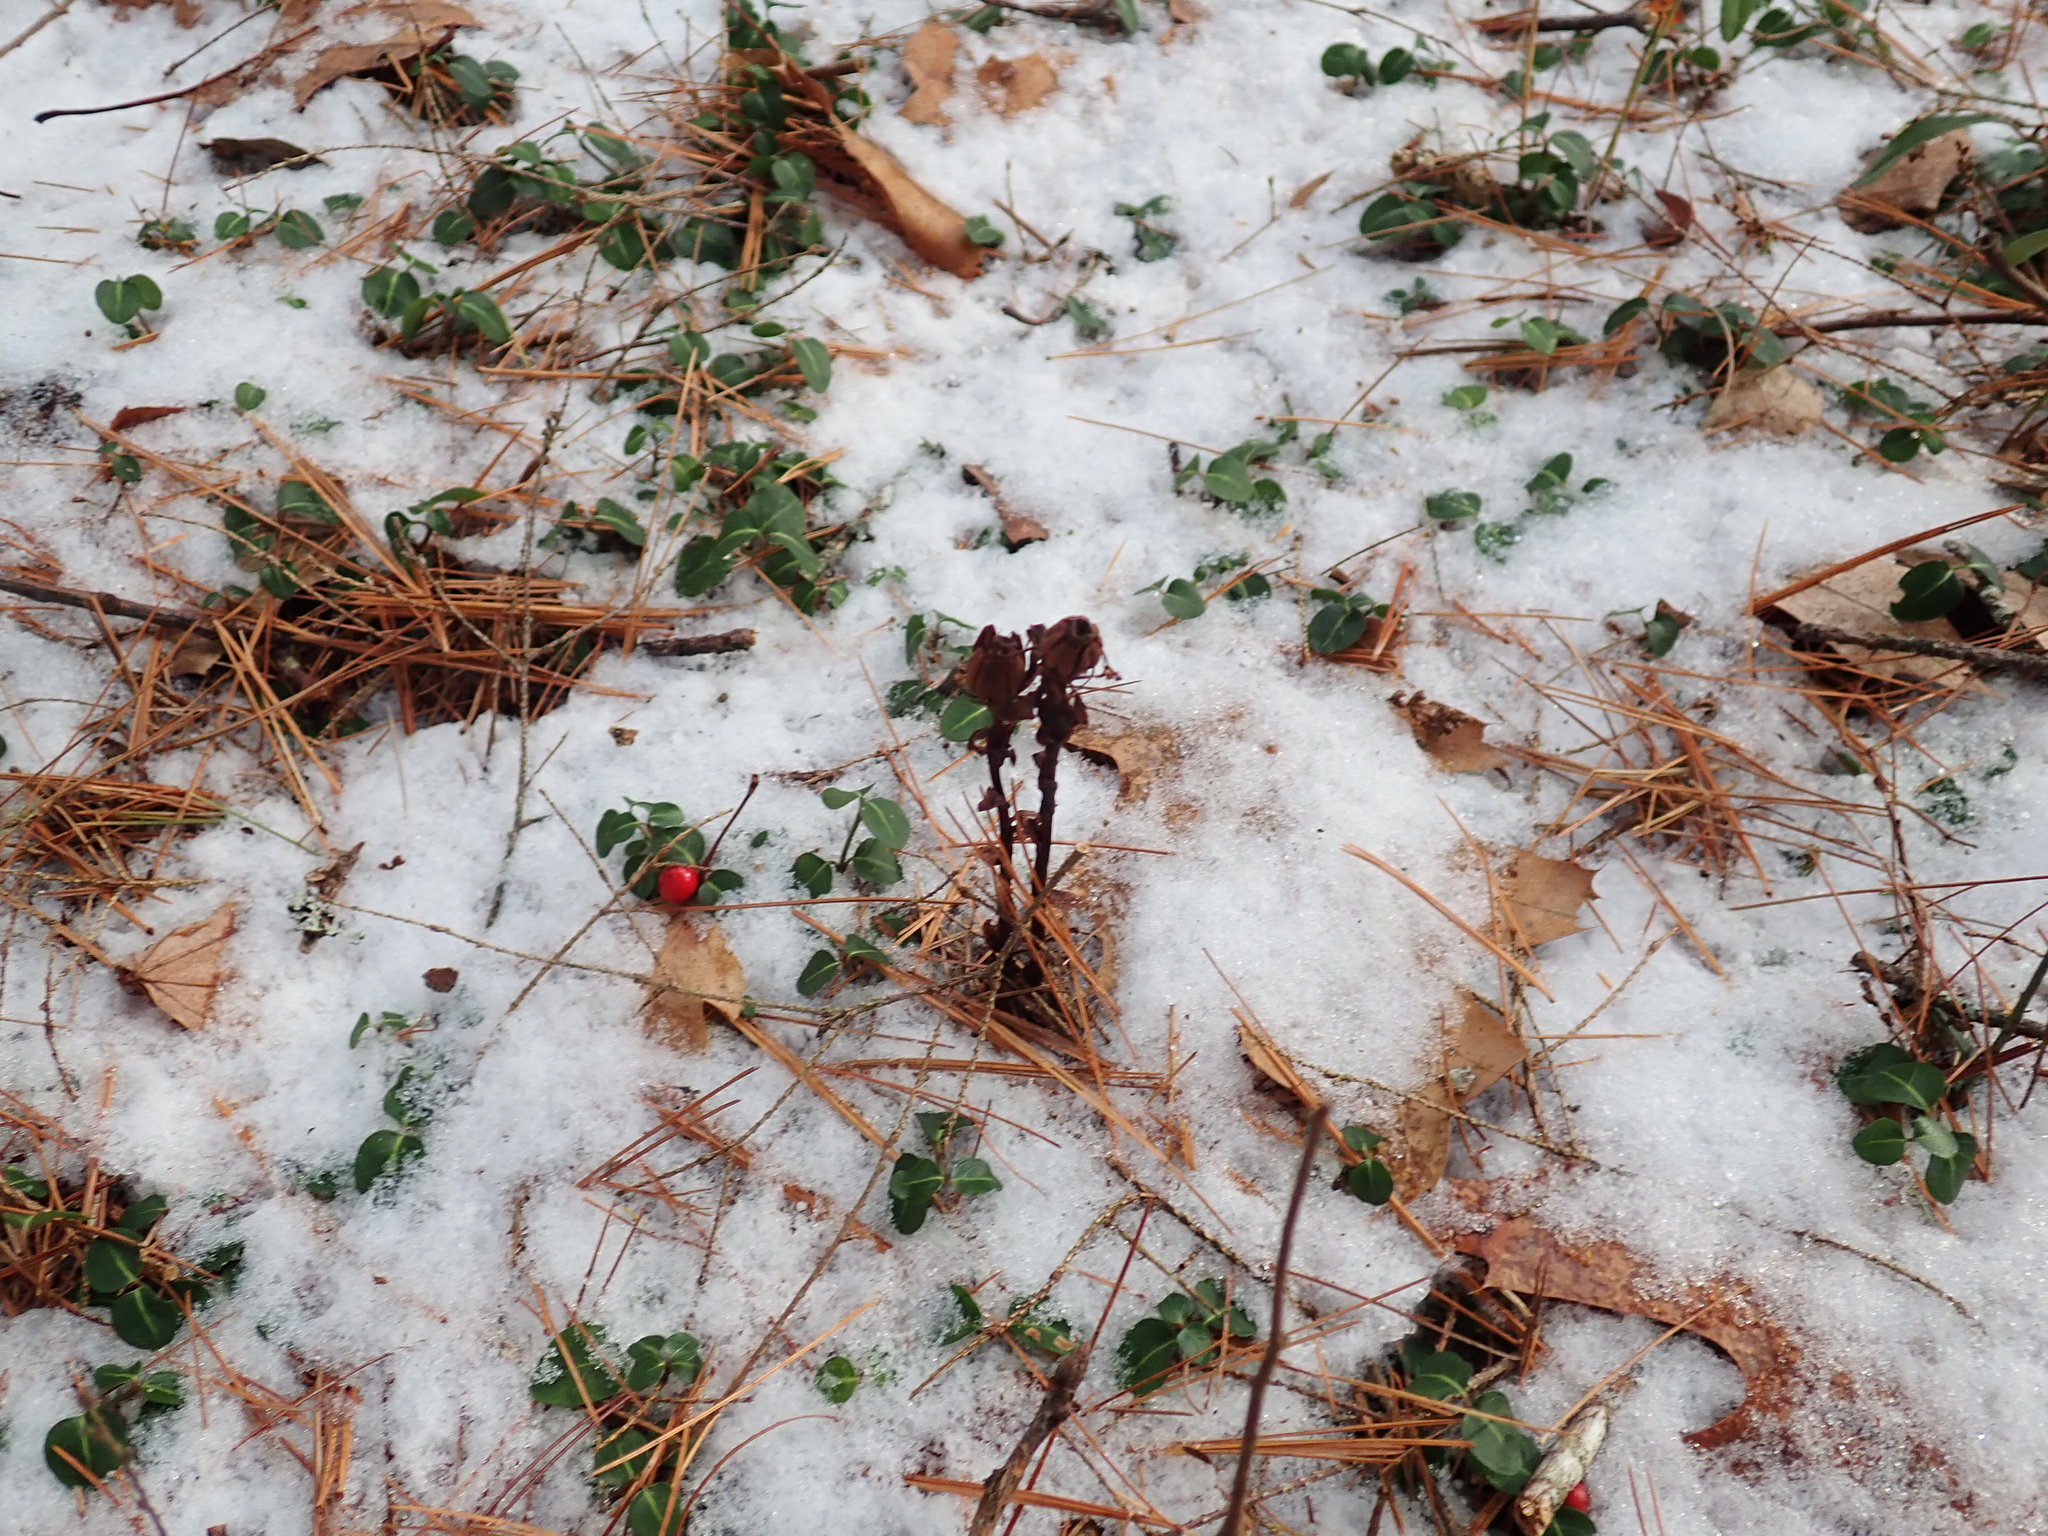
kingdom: Plantae
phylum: Tracheophyta
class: Magnoliopsida
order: Ericales
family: Ericaceae
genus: Monotropa
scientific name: Monotropa uniflora
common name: Convulsion root
